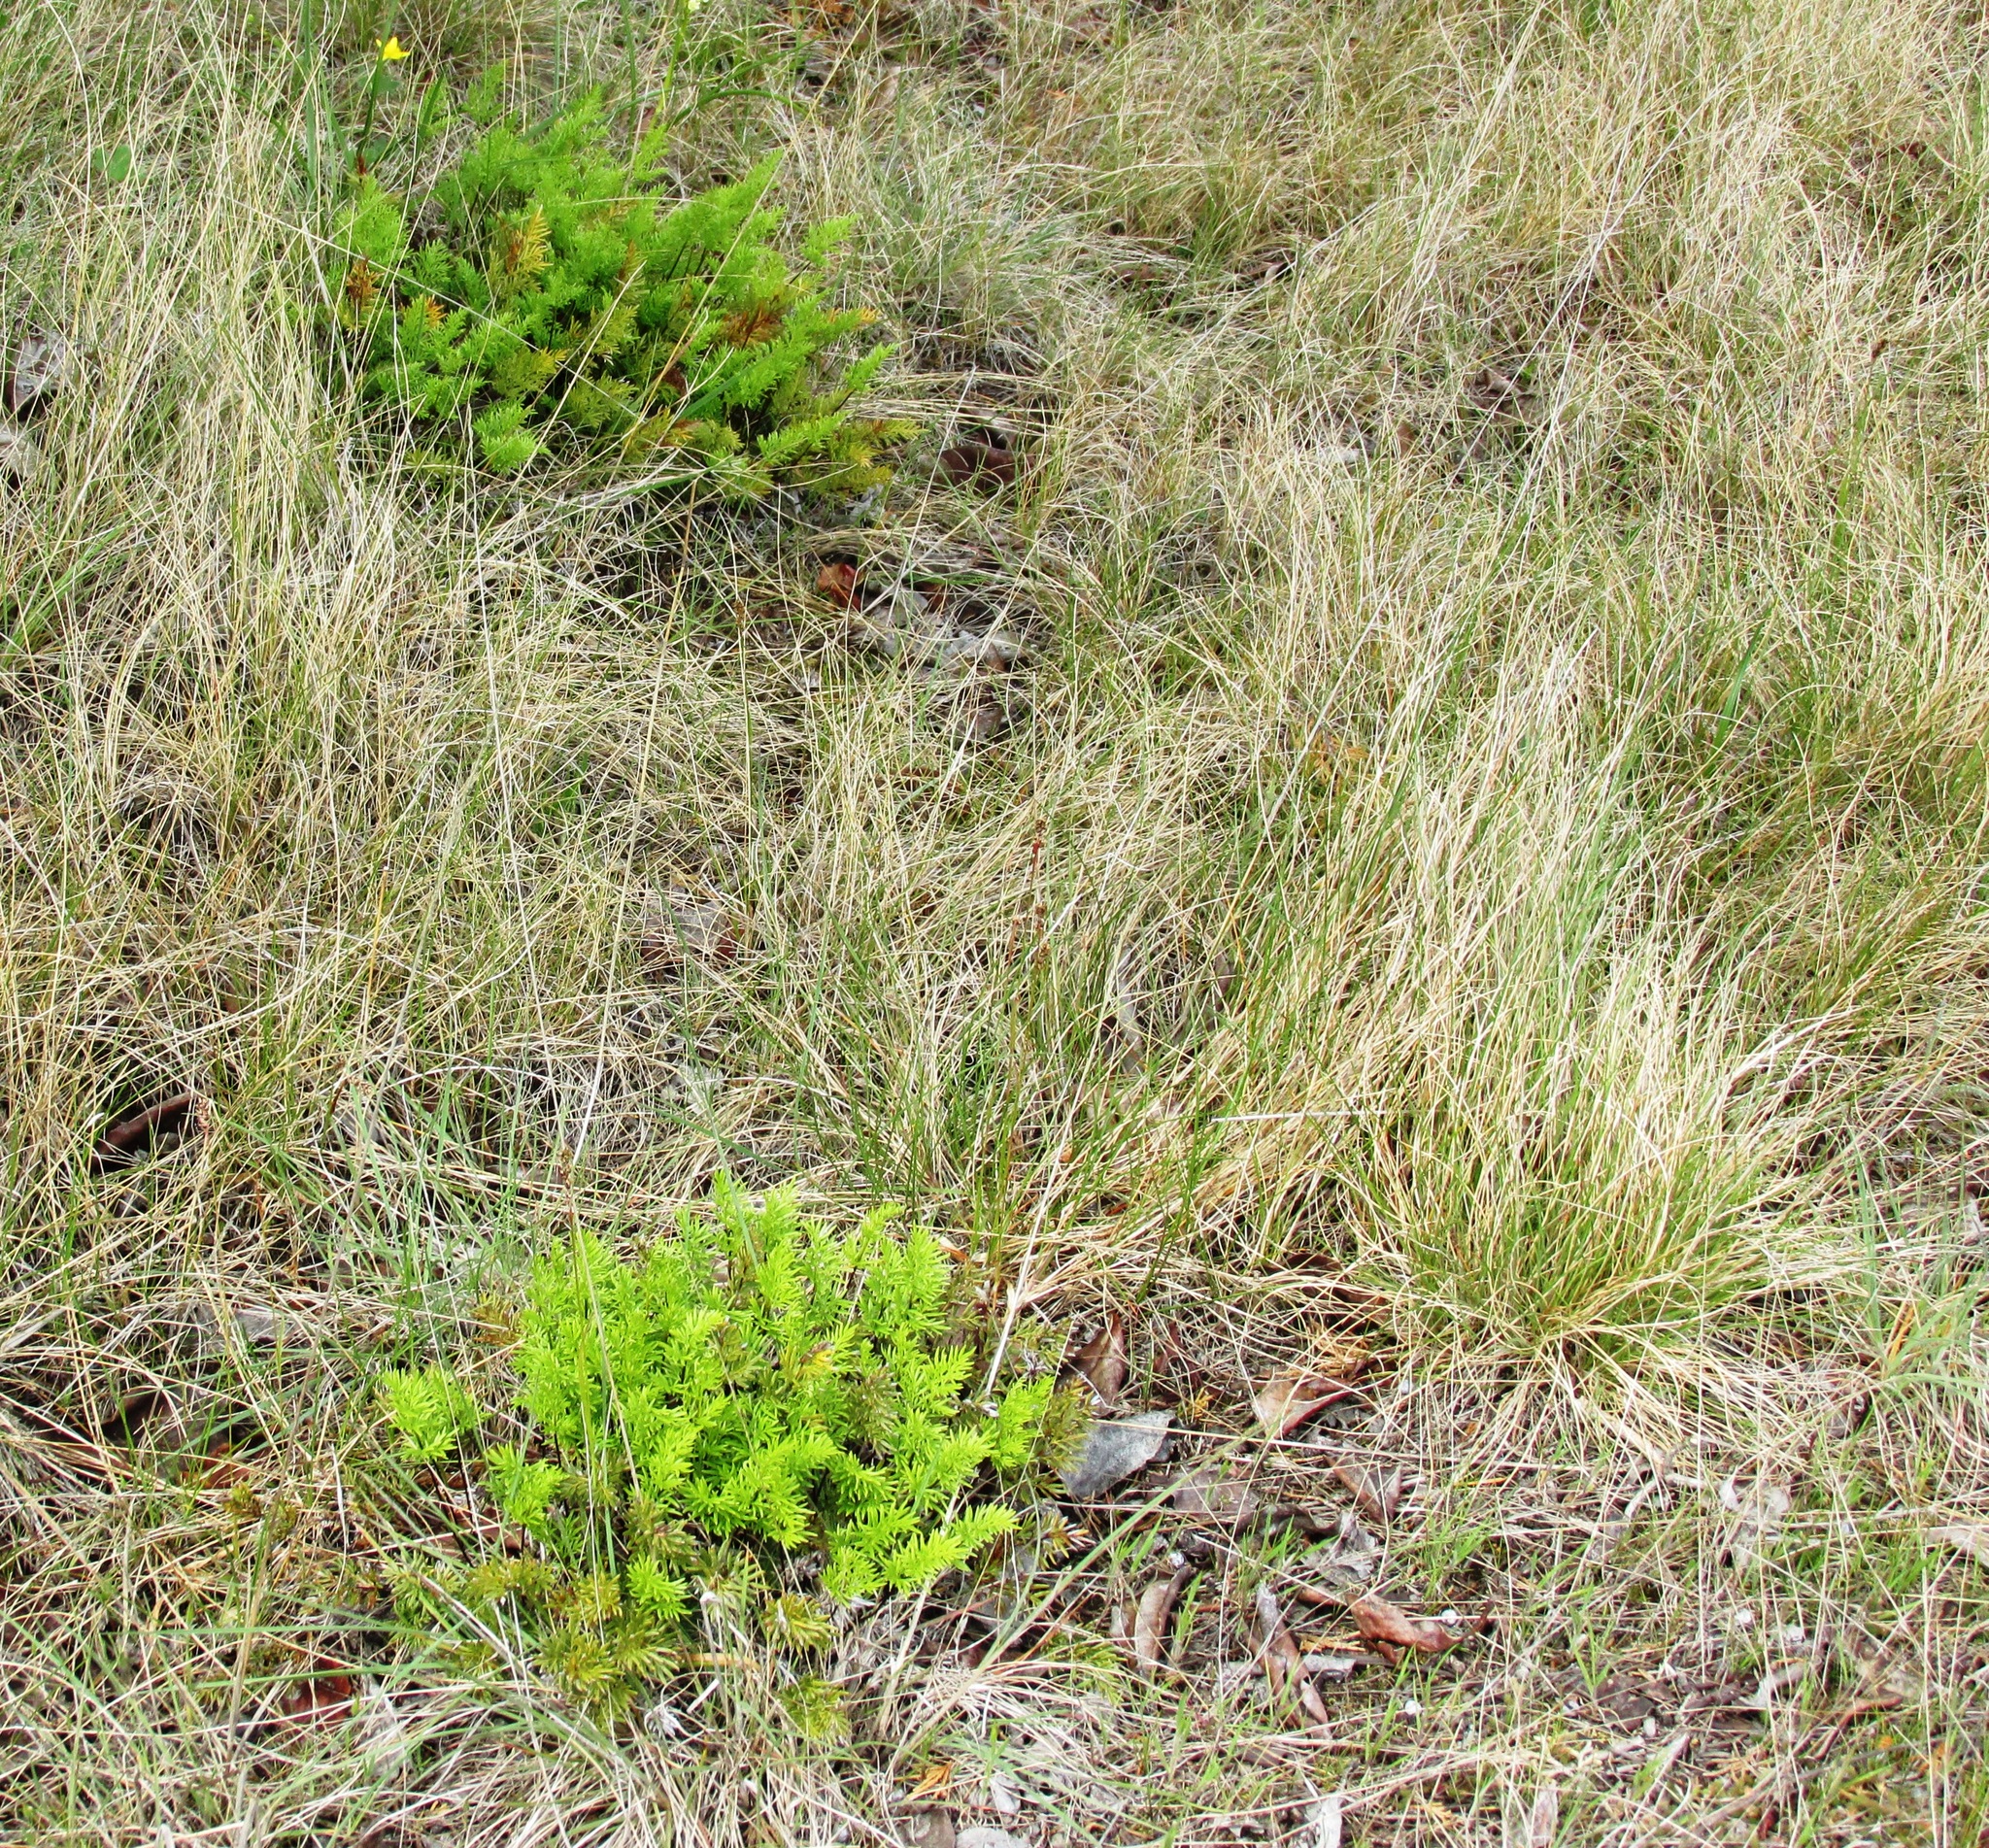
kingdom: Plantae
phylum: Tracheophyta
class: Polypodiopsida
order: Polypodiales
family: Pteridaceae
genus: Aspidotis
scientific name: Aspidotis densa
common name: Indian's dream
